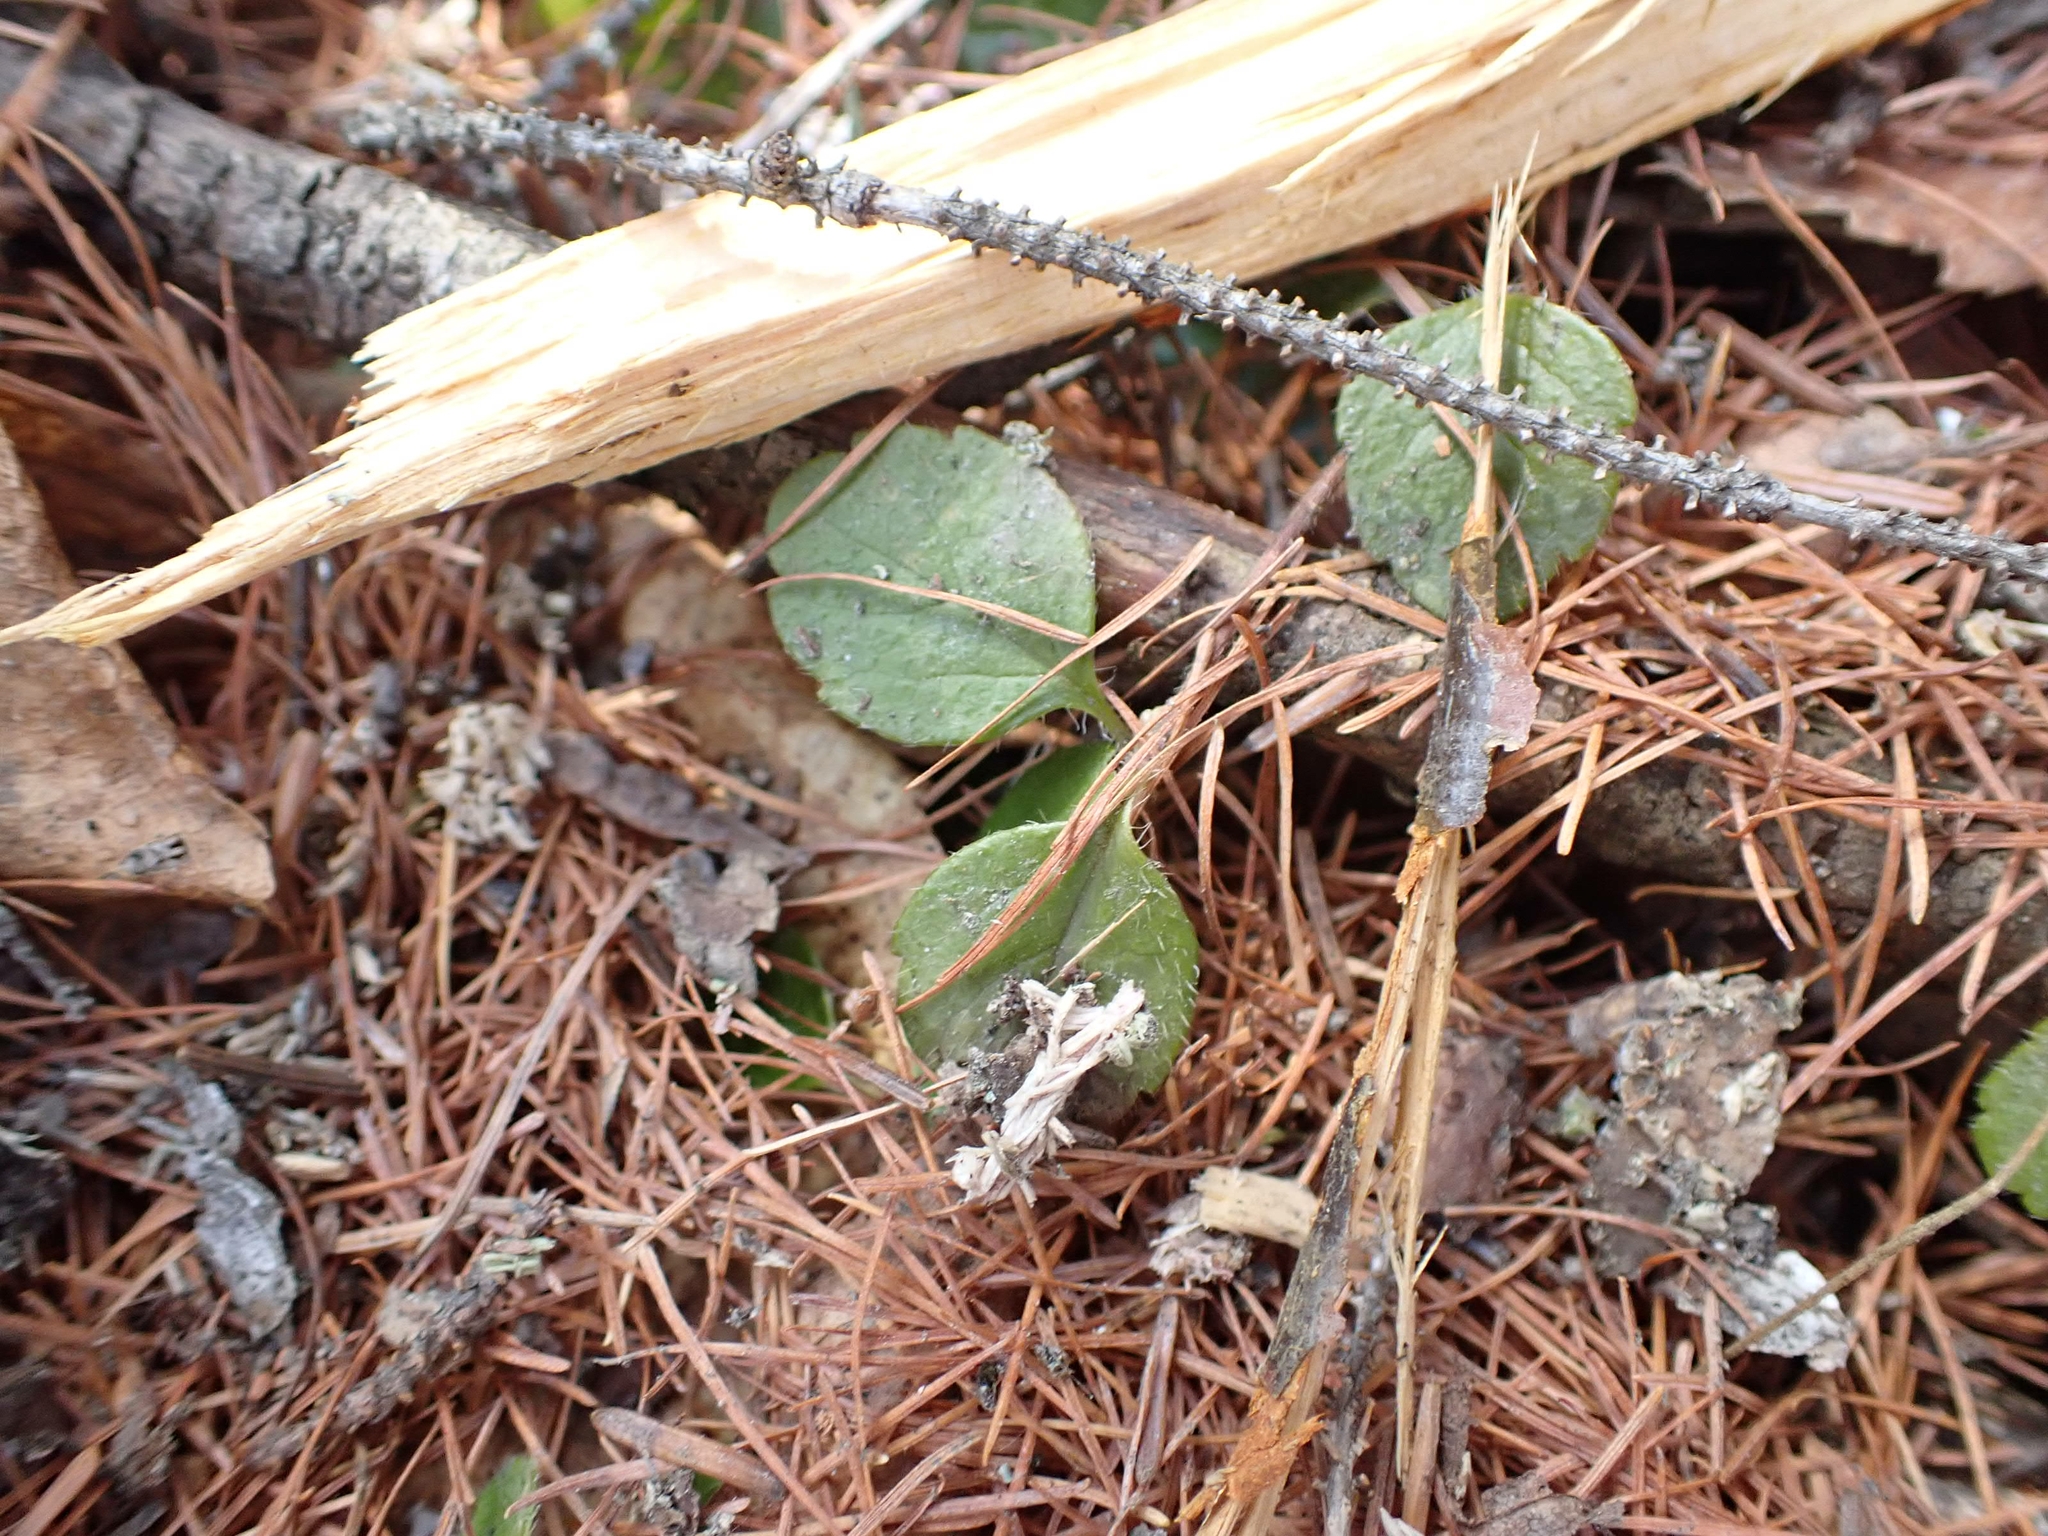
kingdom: Plantae
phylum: Tracheophyta
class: Magnoliopsida
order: Dipsacales
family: Caprifoliaceae
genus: Linnaea
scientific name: Linnaea borealis
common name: Twinflower
